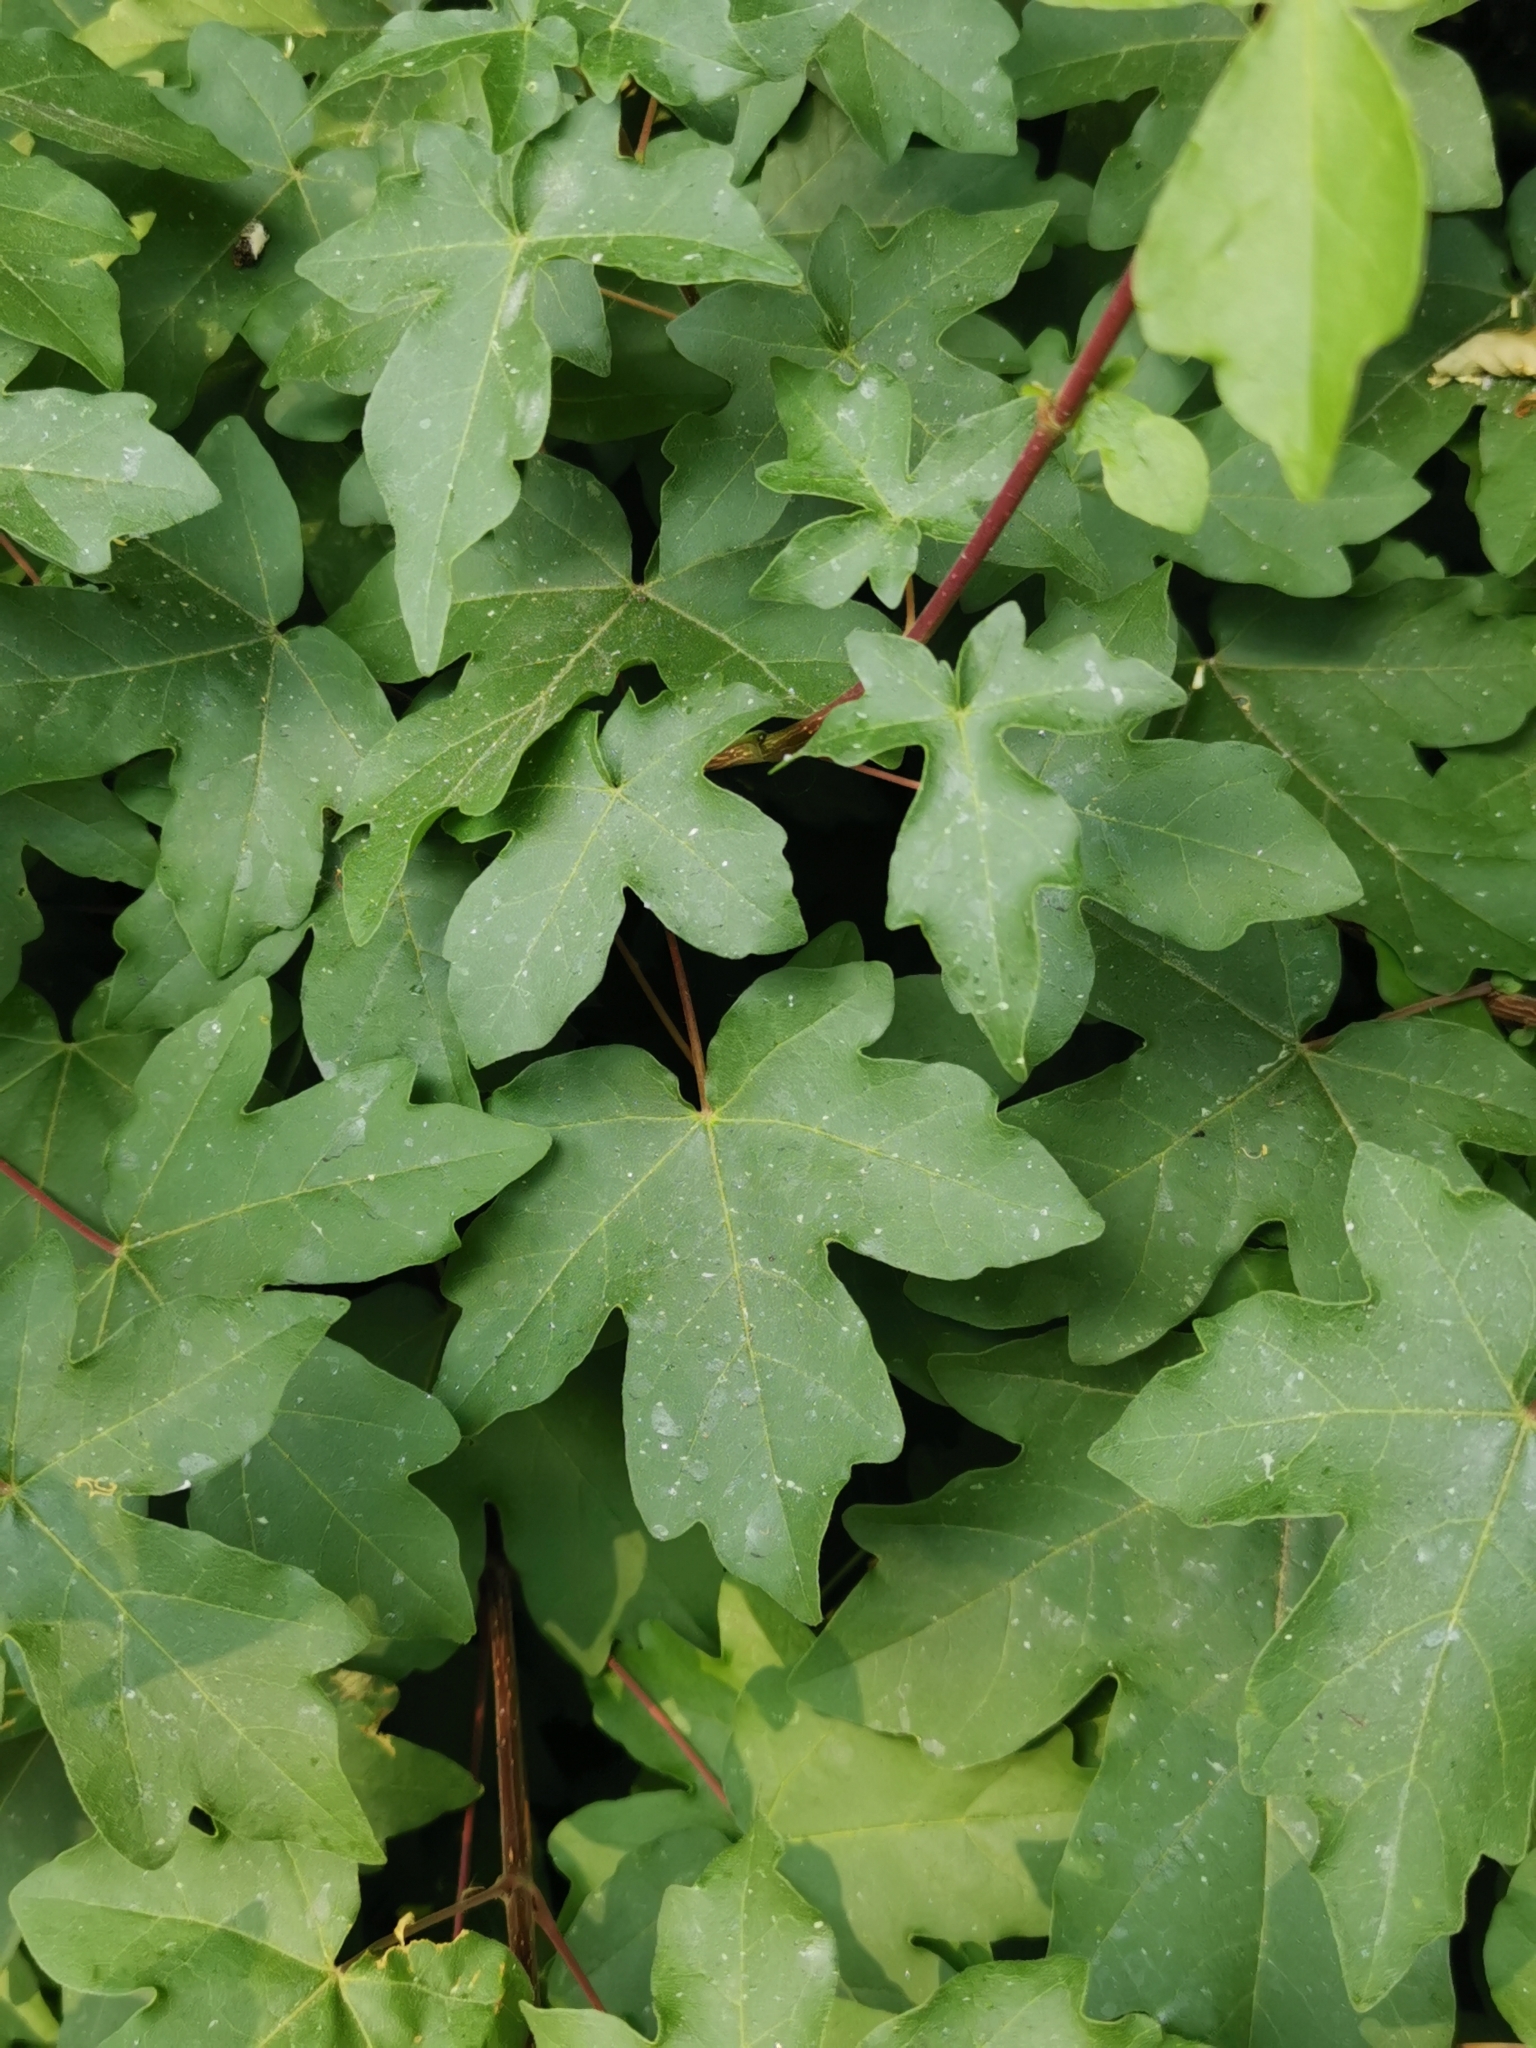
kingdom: Plantae
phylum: Tracheophyta
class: Magnoliopsida
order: Sapindales
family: Sapindaceae
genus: Acer
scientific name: Acer campestre
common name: Field maple
